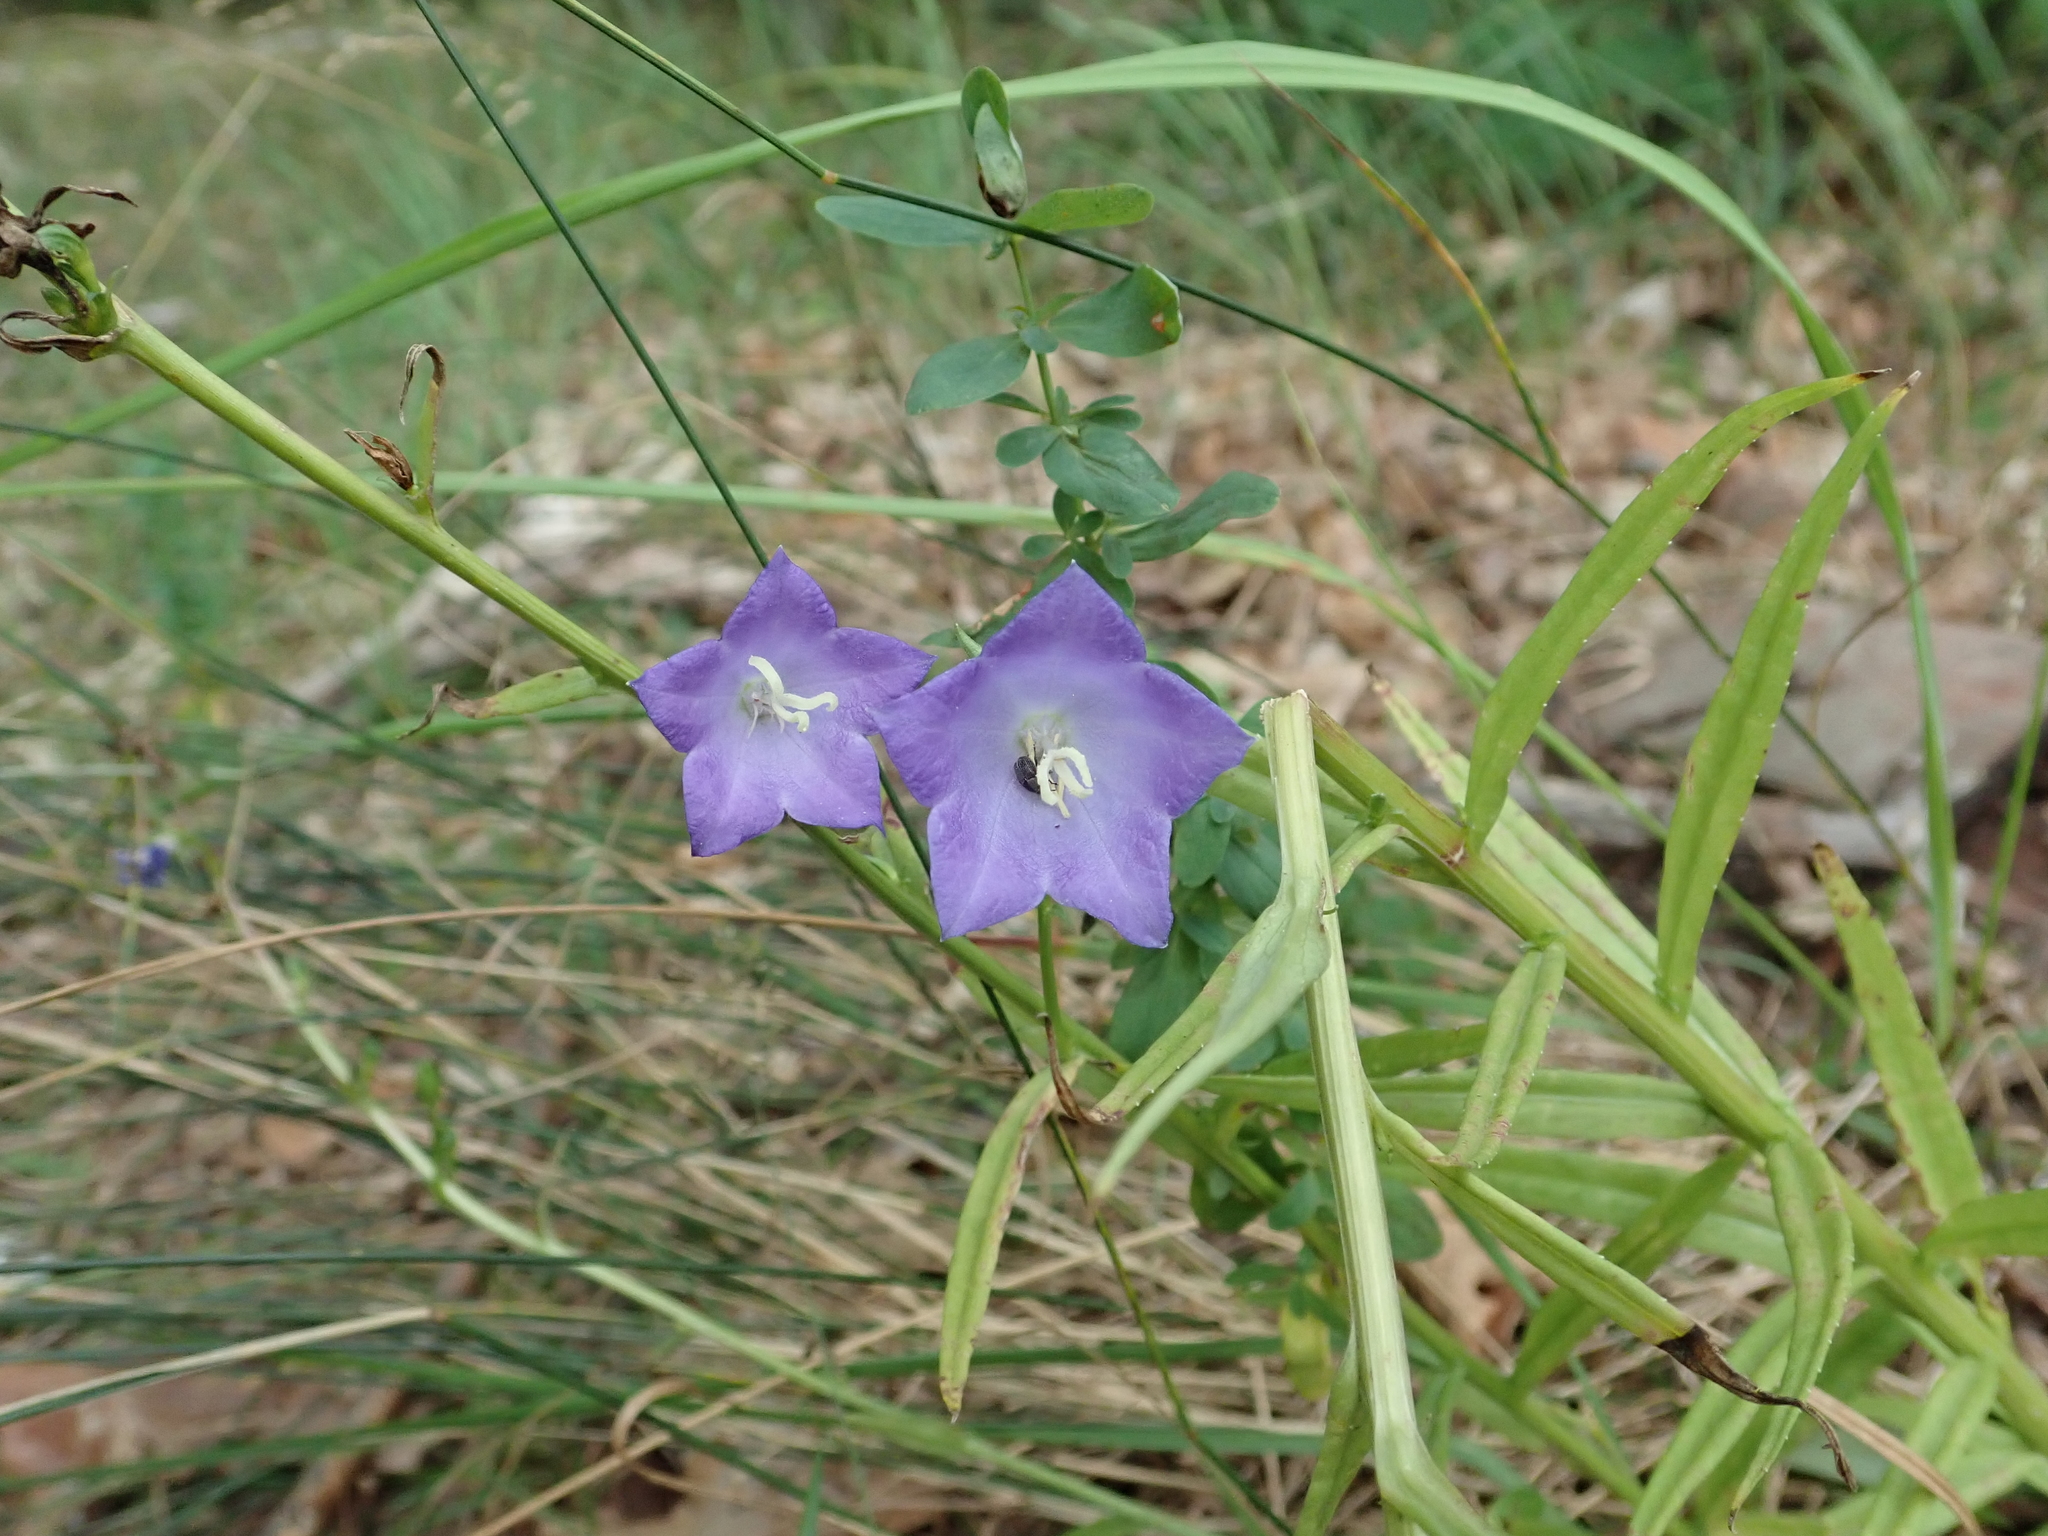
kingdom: Plantae
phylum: Tracheophyta
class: Magnoliopsida
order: Asterales
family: Campanulaceae
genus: Campanula
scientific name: Campanula persicifolia
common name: Peach-leaved bellflower
